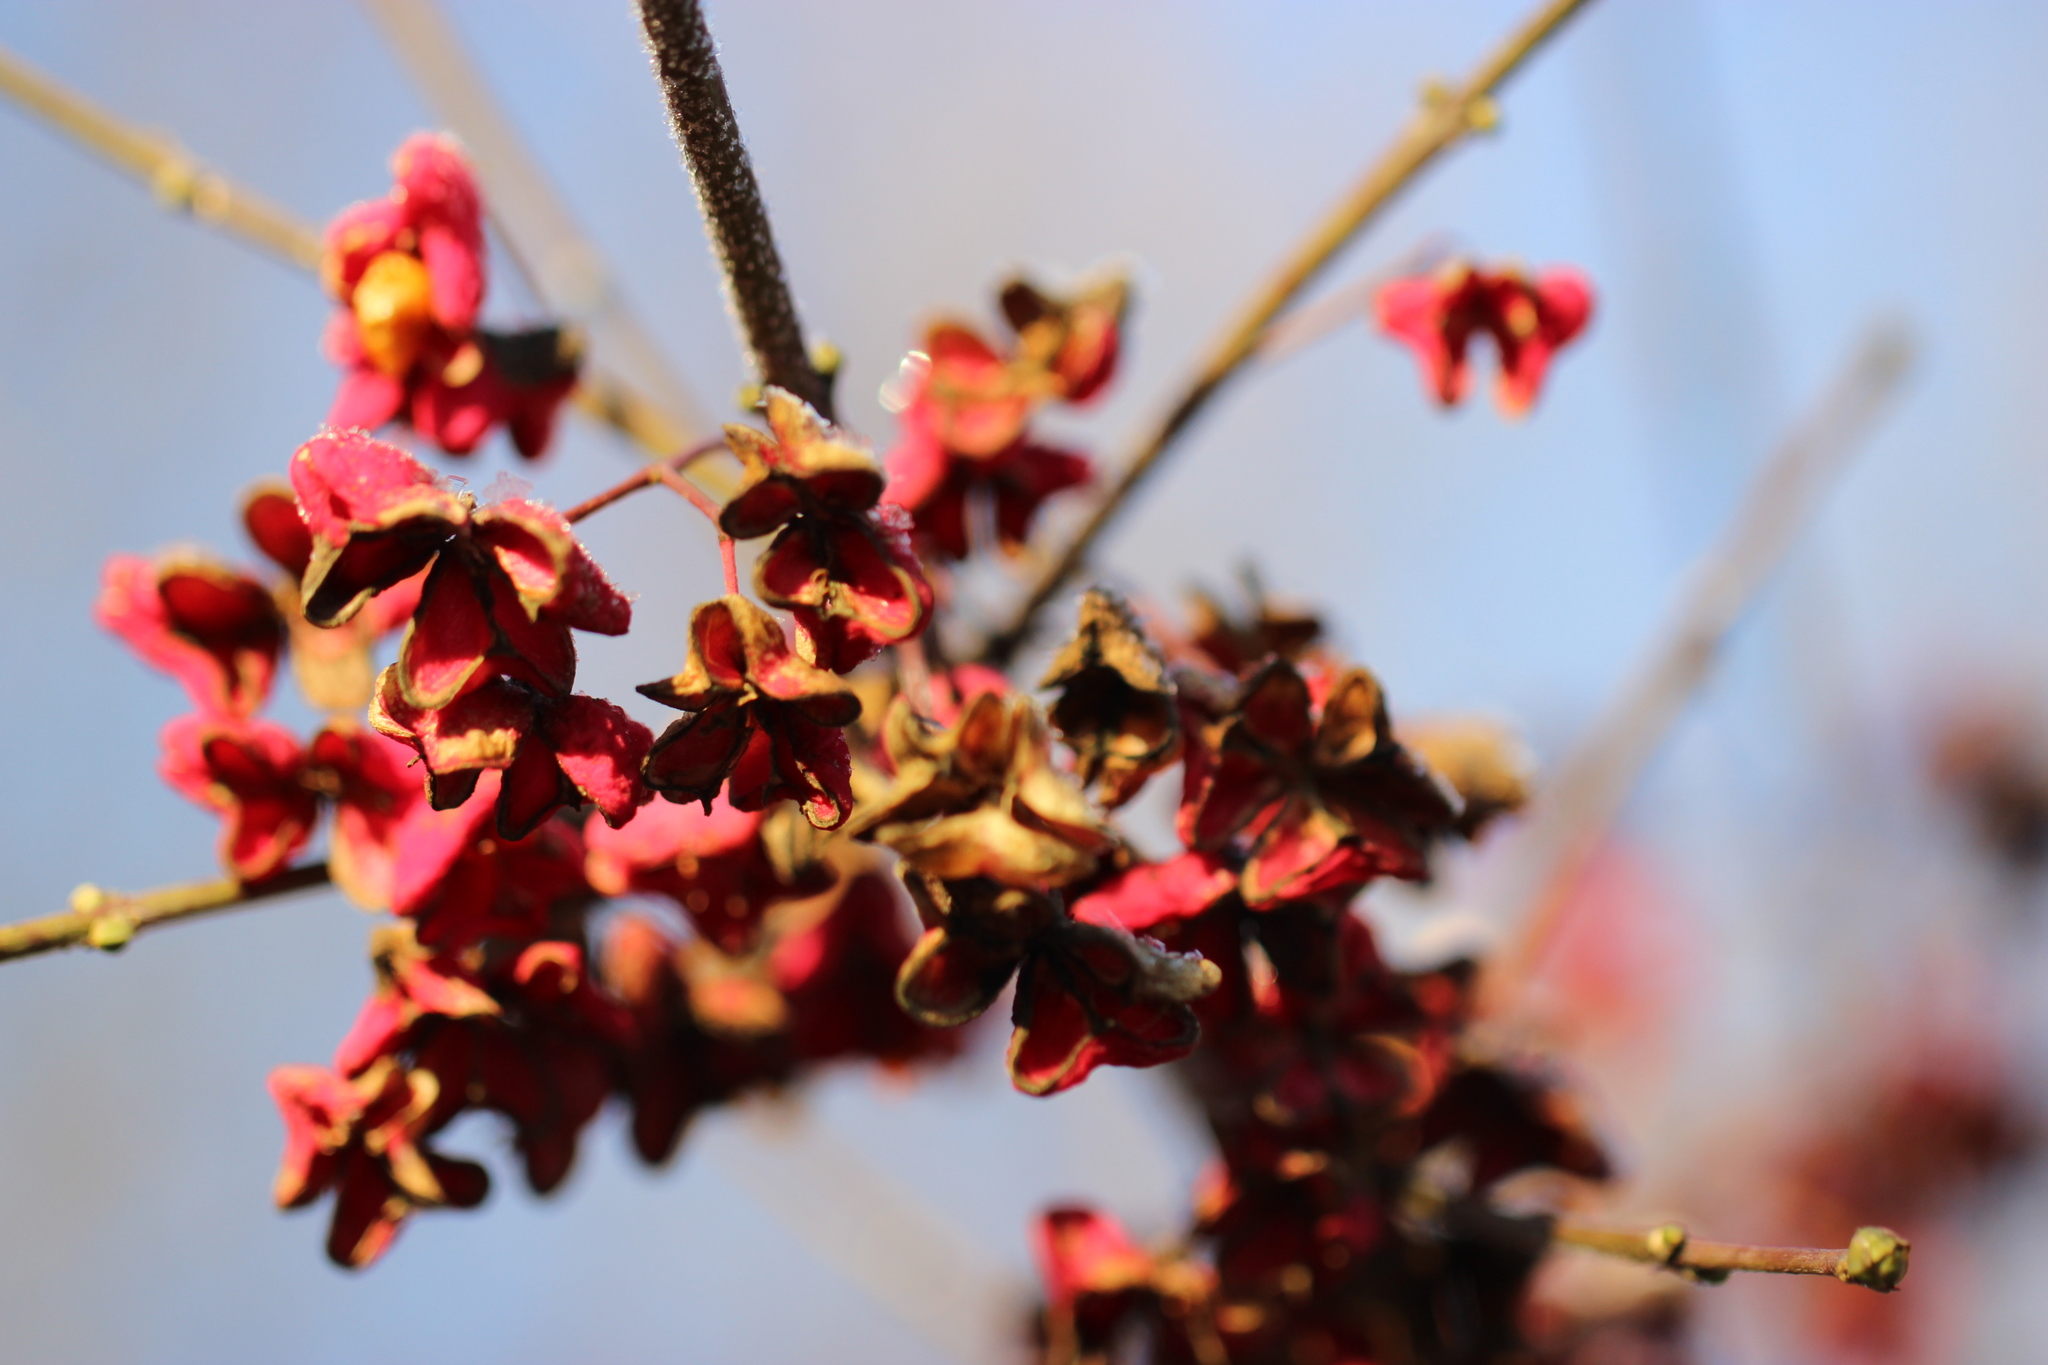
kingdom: Plantae
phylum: Tracheophyta
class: Magnoliopsida
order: Celastrales
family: Celastraceae
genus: Euonymus
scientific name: Euonymus europaeus
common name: Spindle
